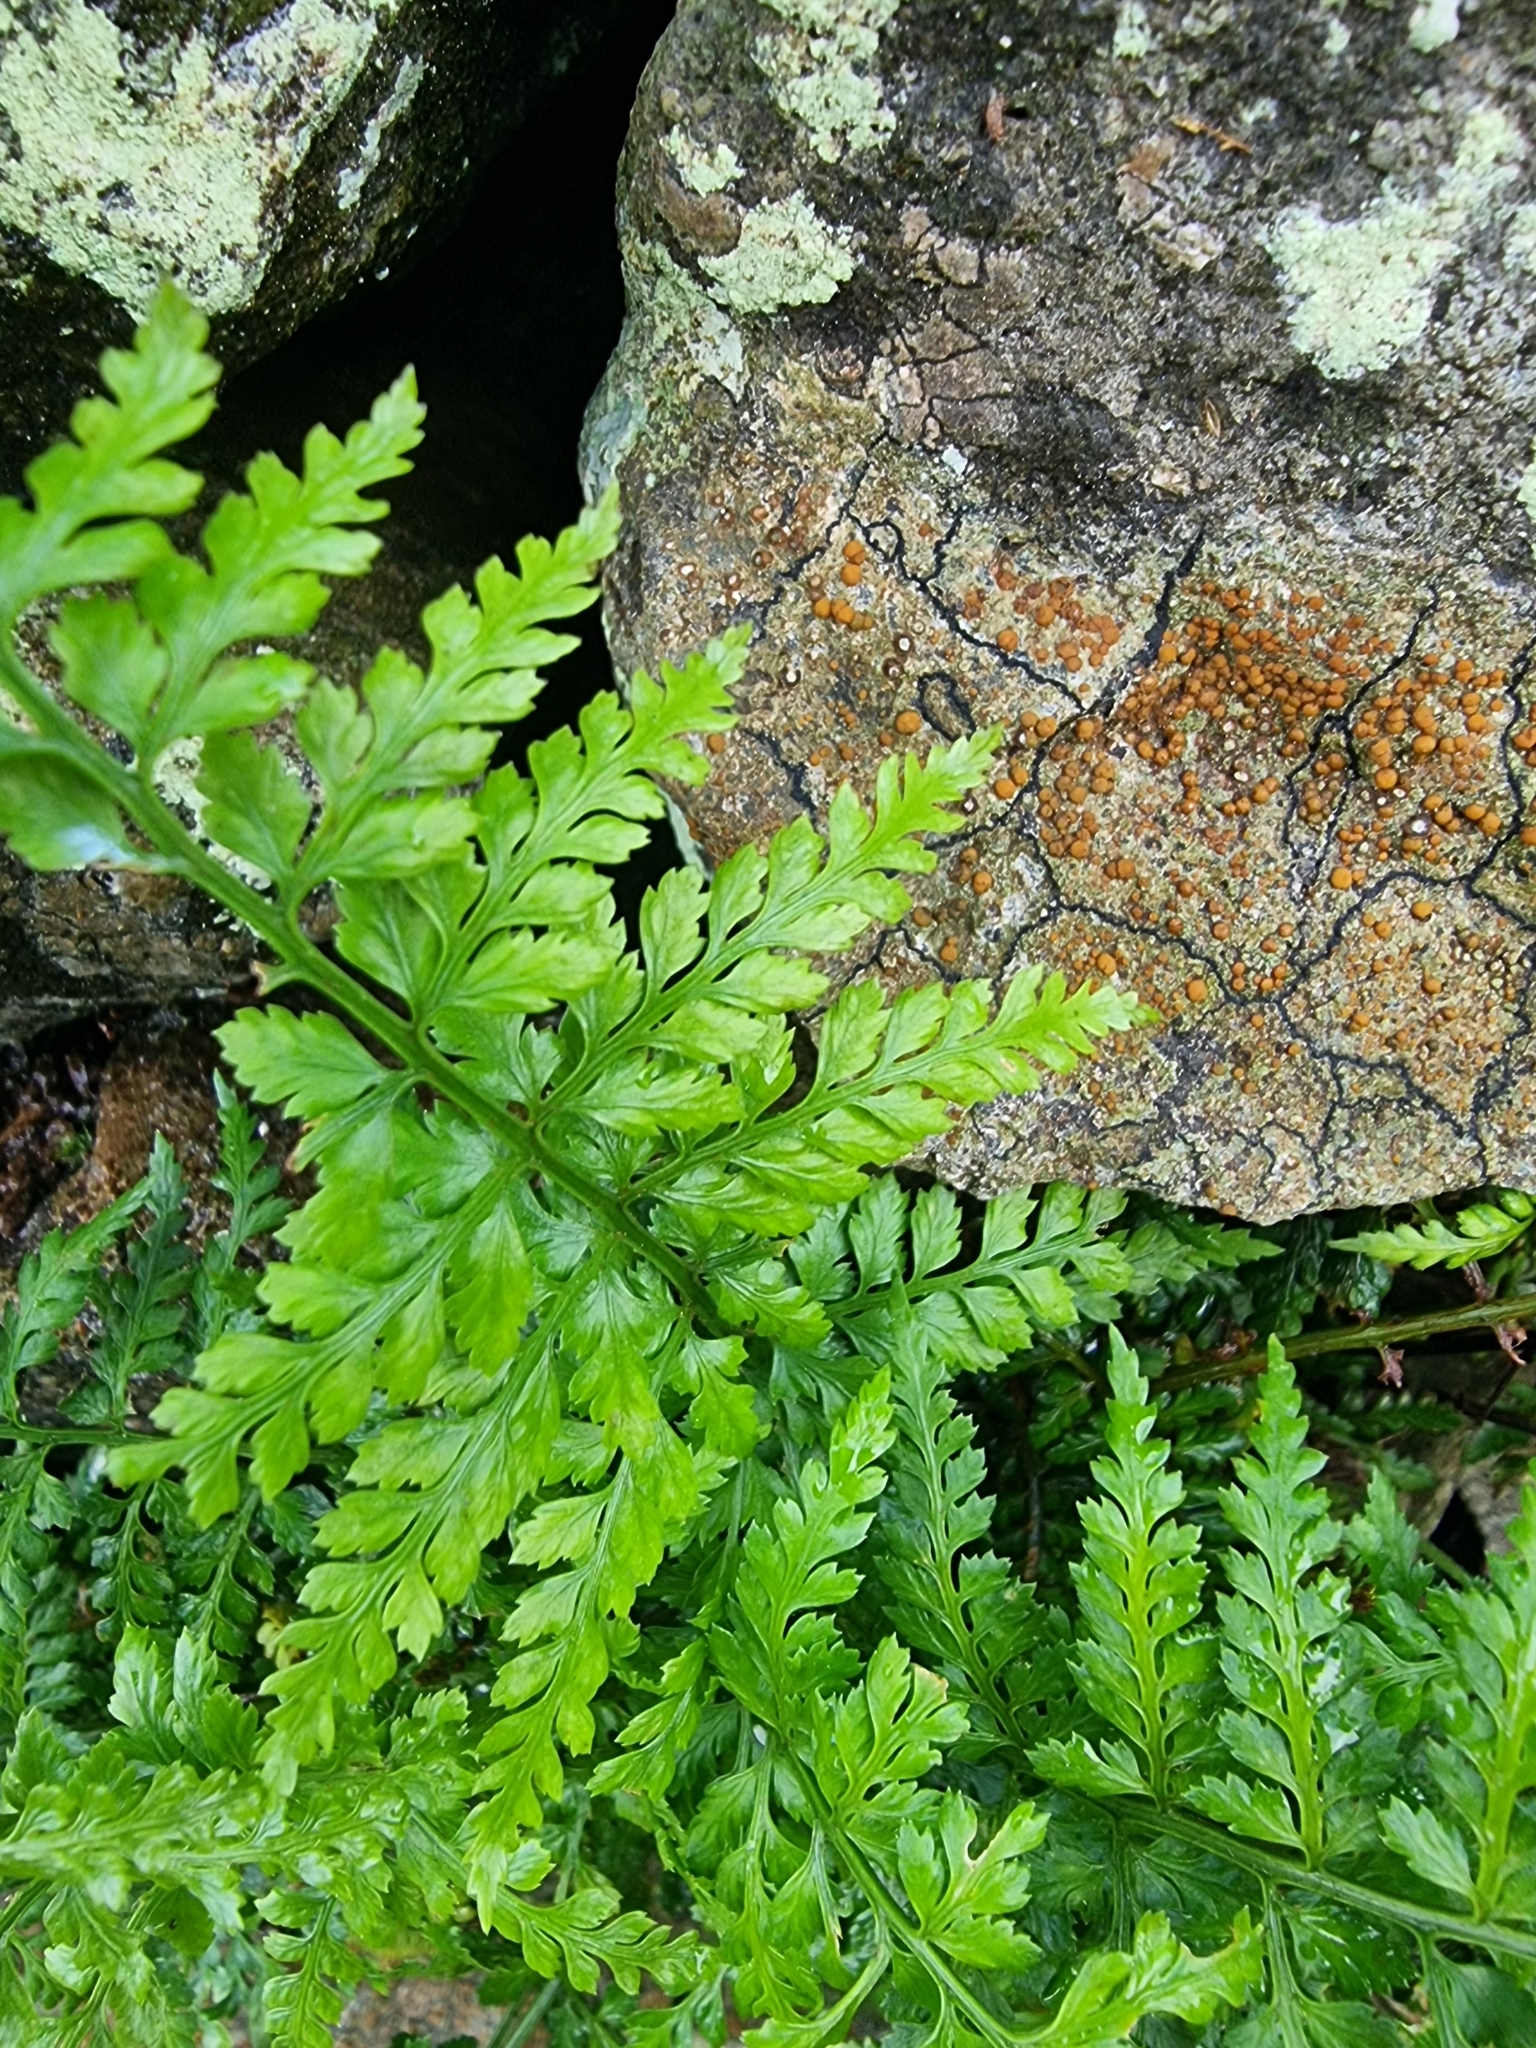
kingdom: Plantae
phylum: Tracheophyta
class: Polypodiopsida
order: Polypodiales
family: Aspleniaceae
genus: Asplenium
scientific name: Asplenium adiantum-nigrum
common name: Black spleenwort
